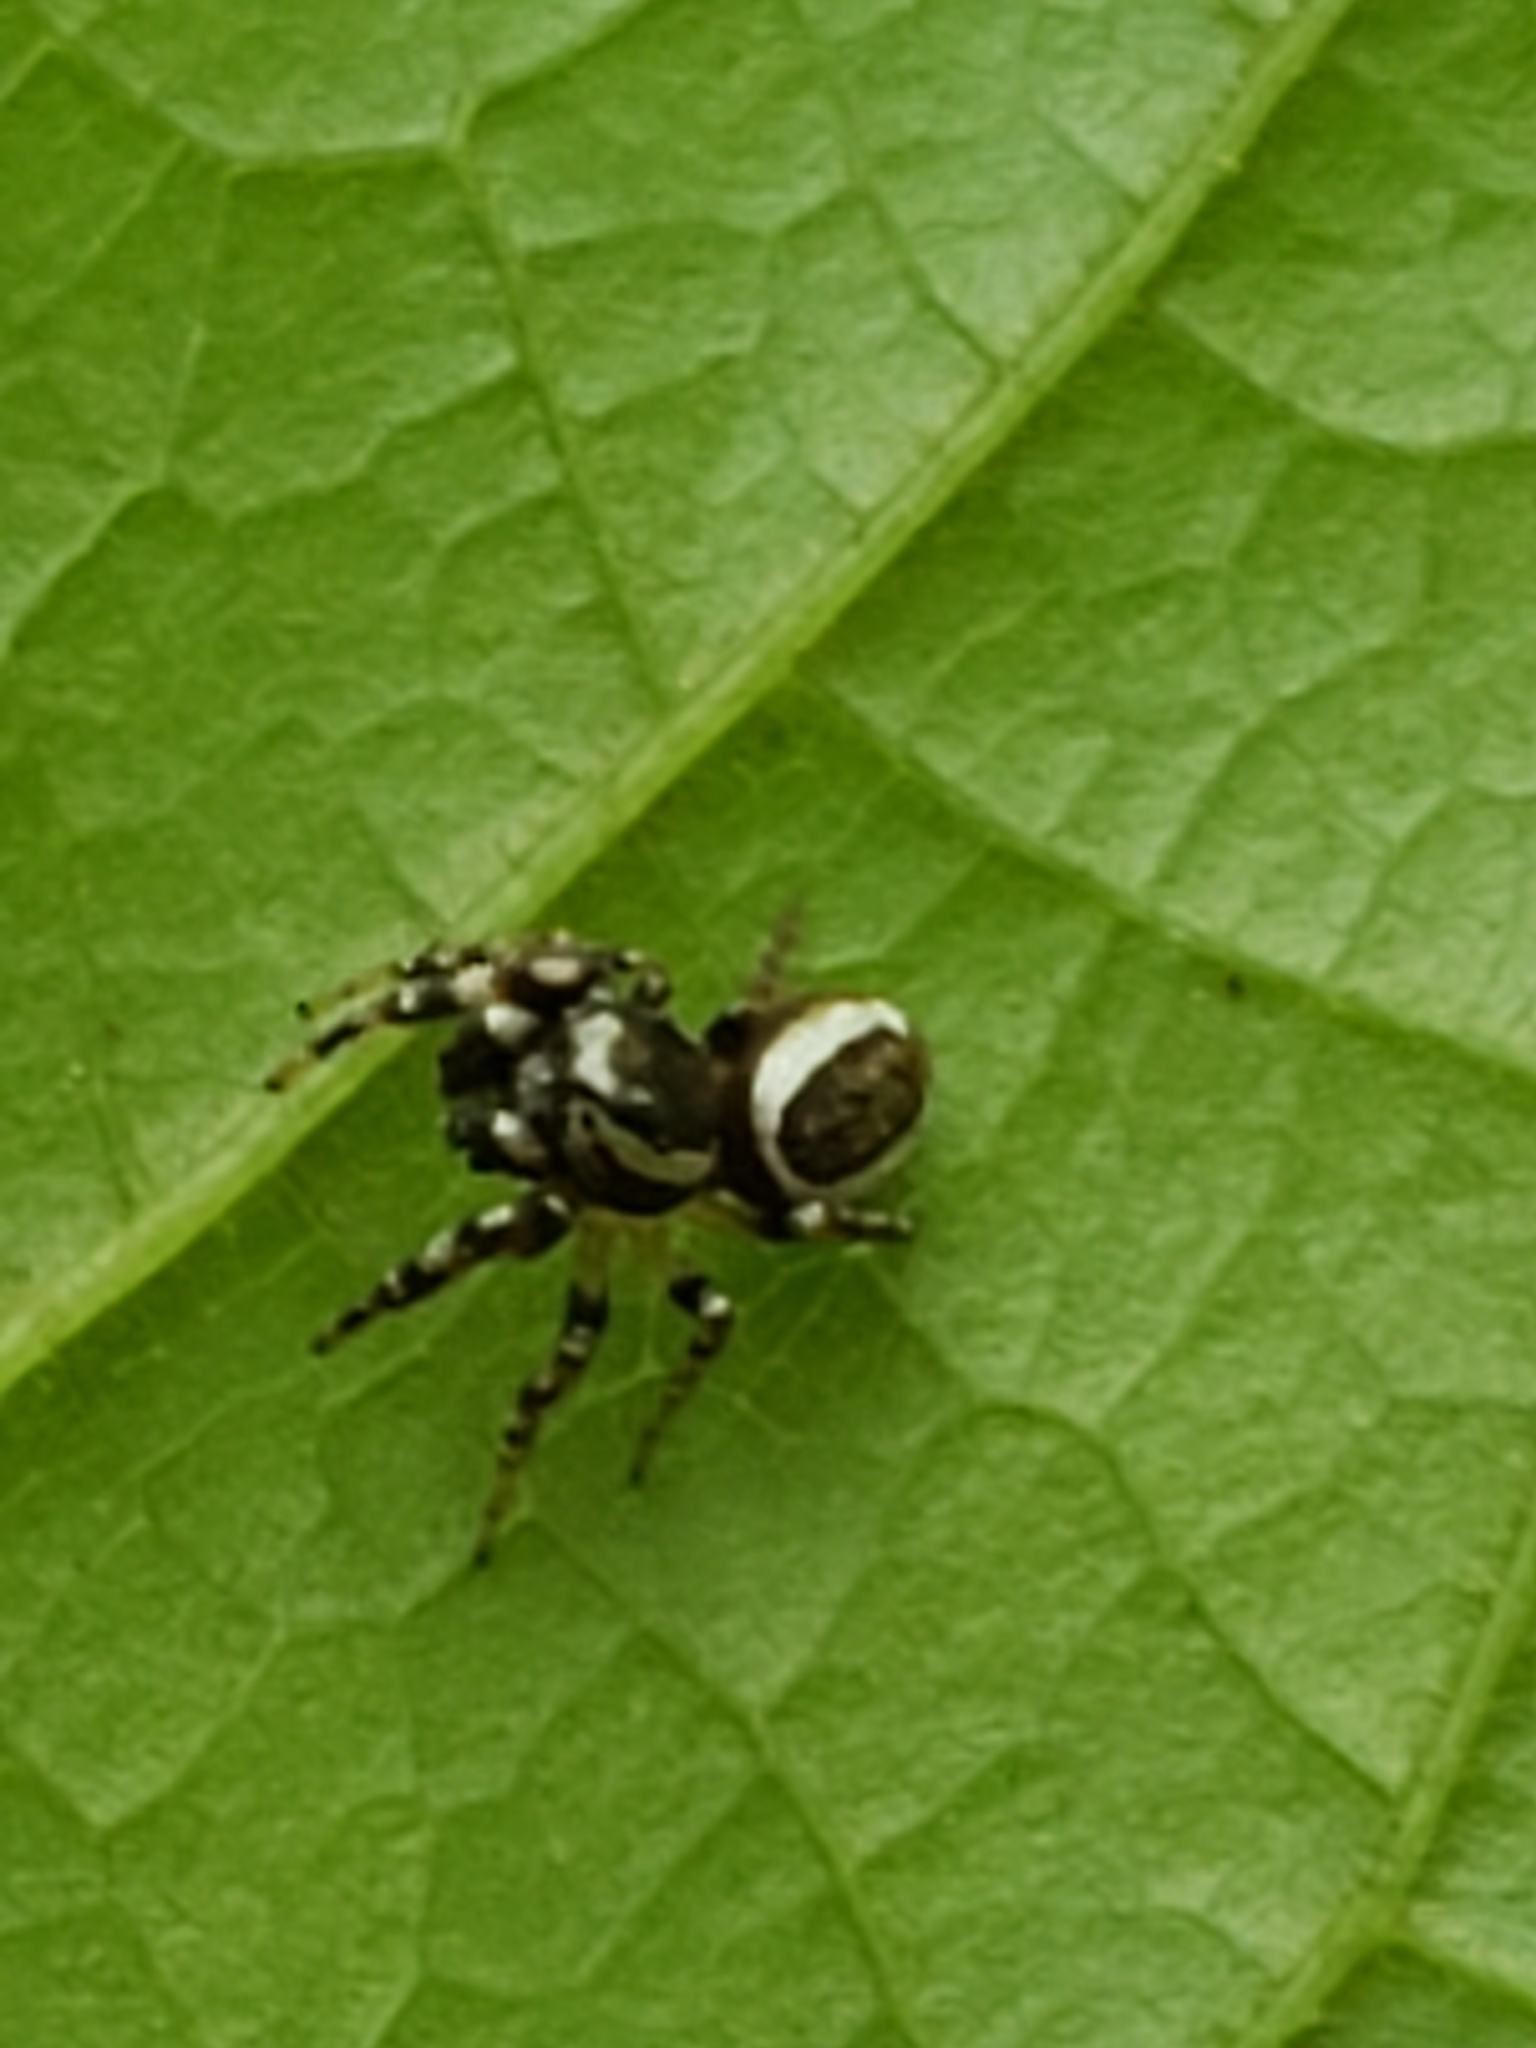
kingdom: Animalia
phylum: Arthropoda
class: Arachnida
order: Araneae
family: Salticidae
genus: Pelegrina
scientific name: Pelegrina proterva
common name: Common white-cheeked jumping spider
